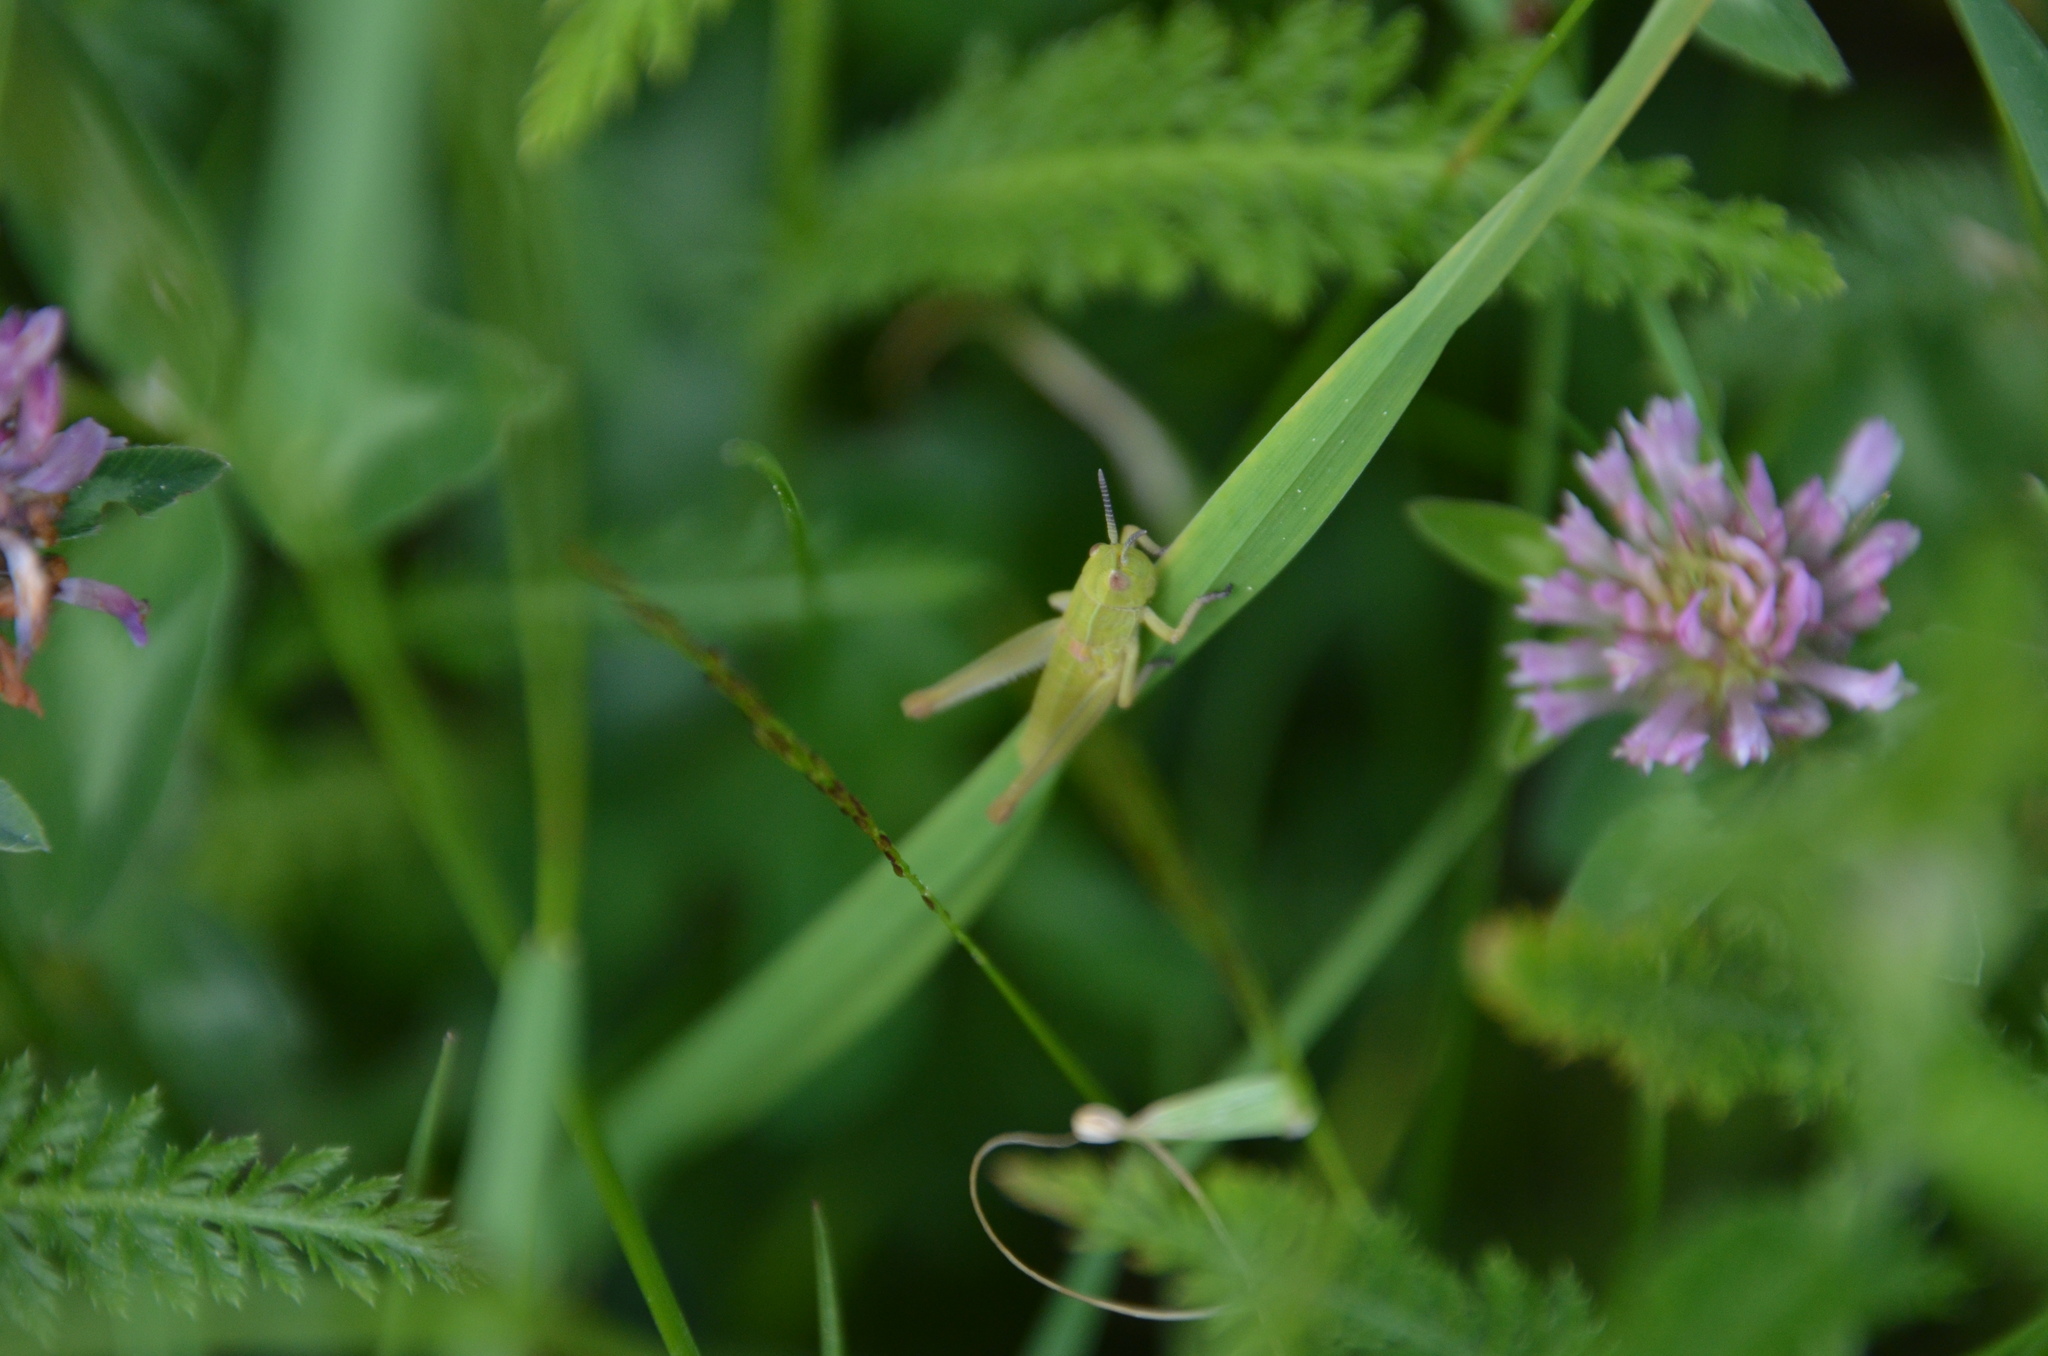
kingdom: Animalia
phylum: Arthropoda
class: Insecta
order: Orthoptera
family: Acrididae
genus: Euthystira
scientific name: Euthystira brachyptera
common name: Small gold grasshopper
